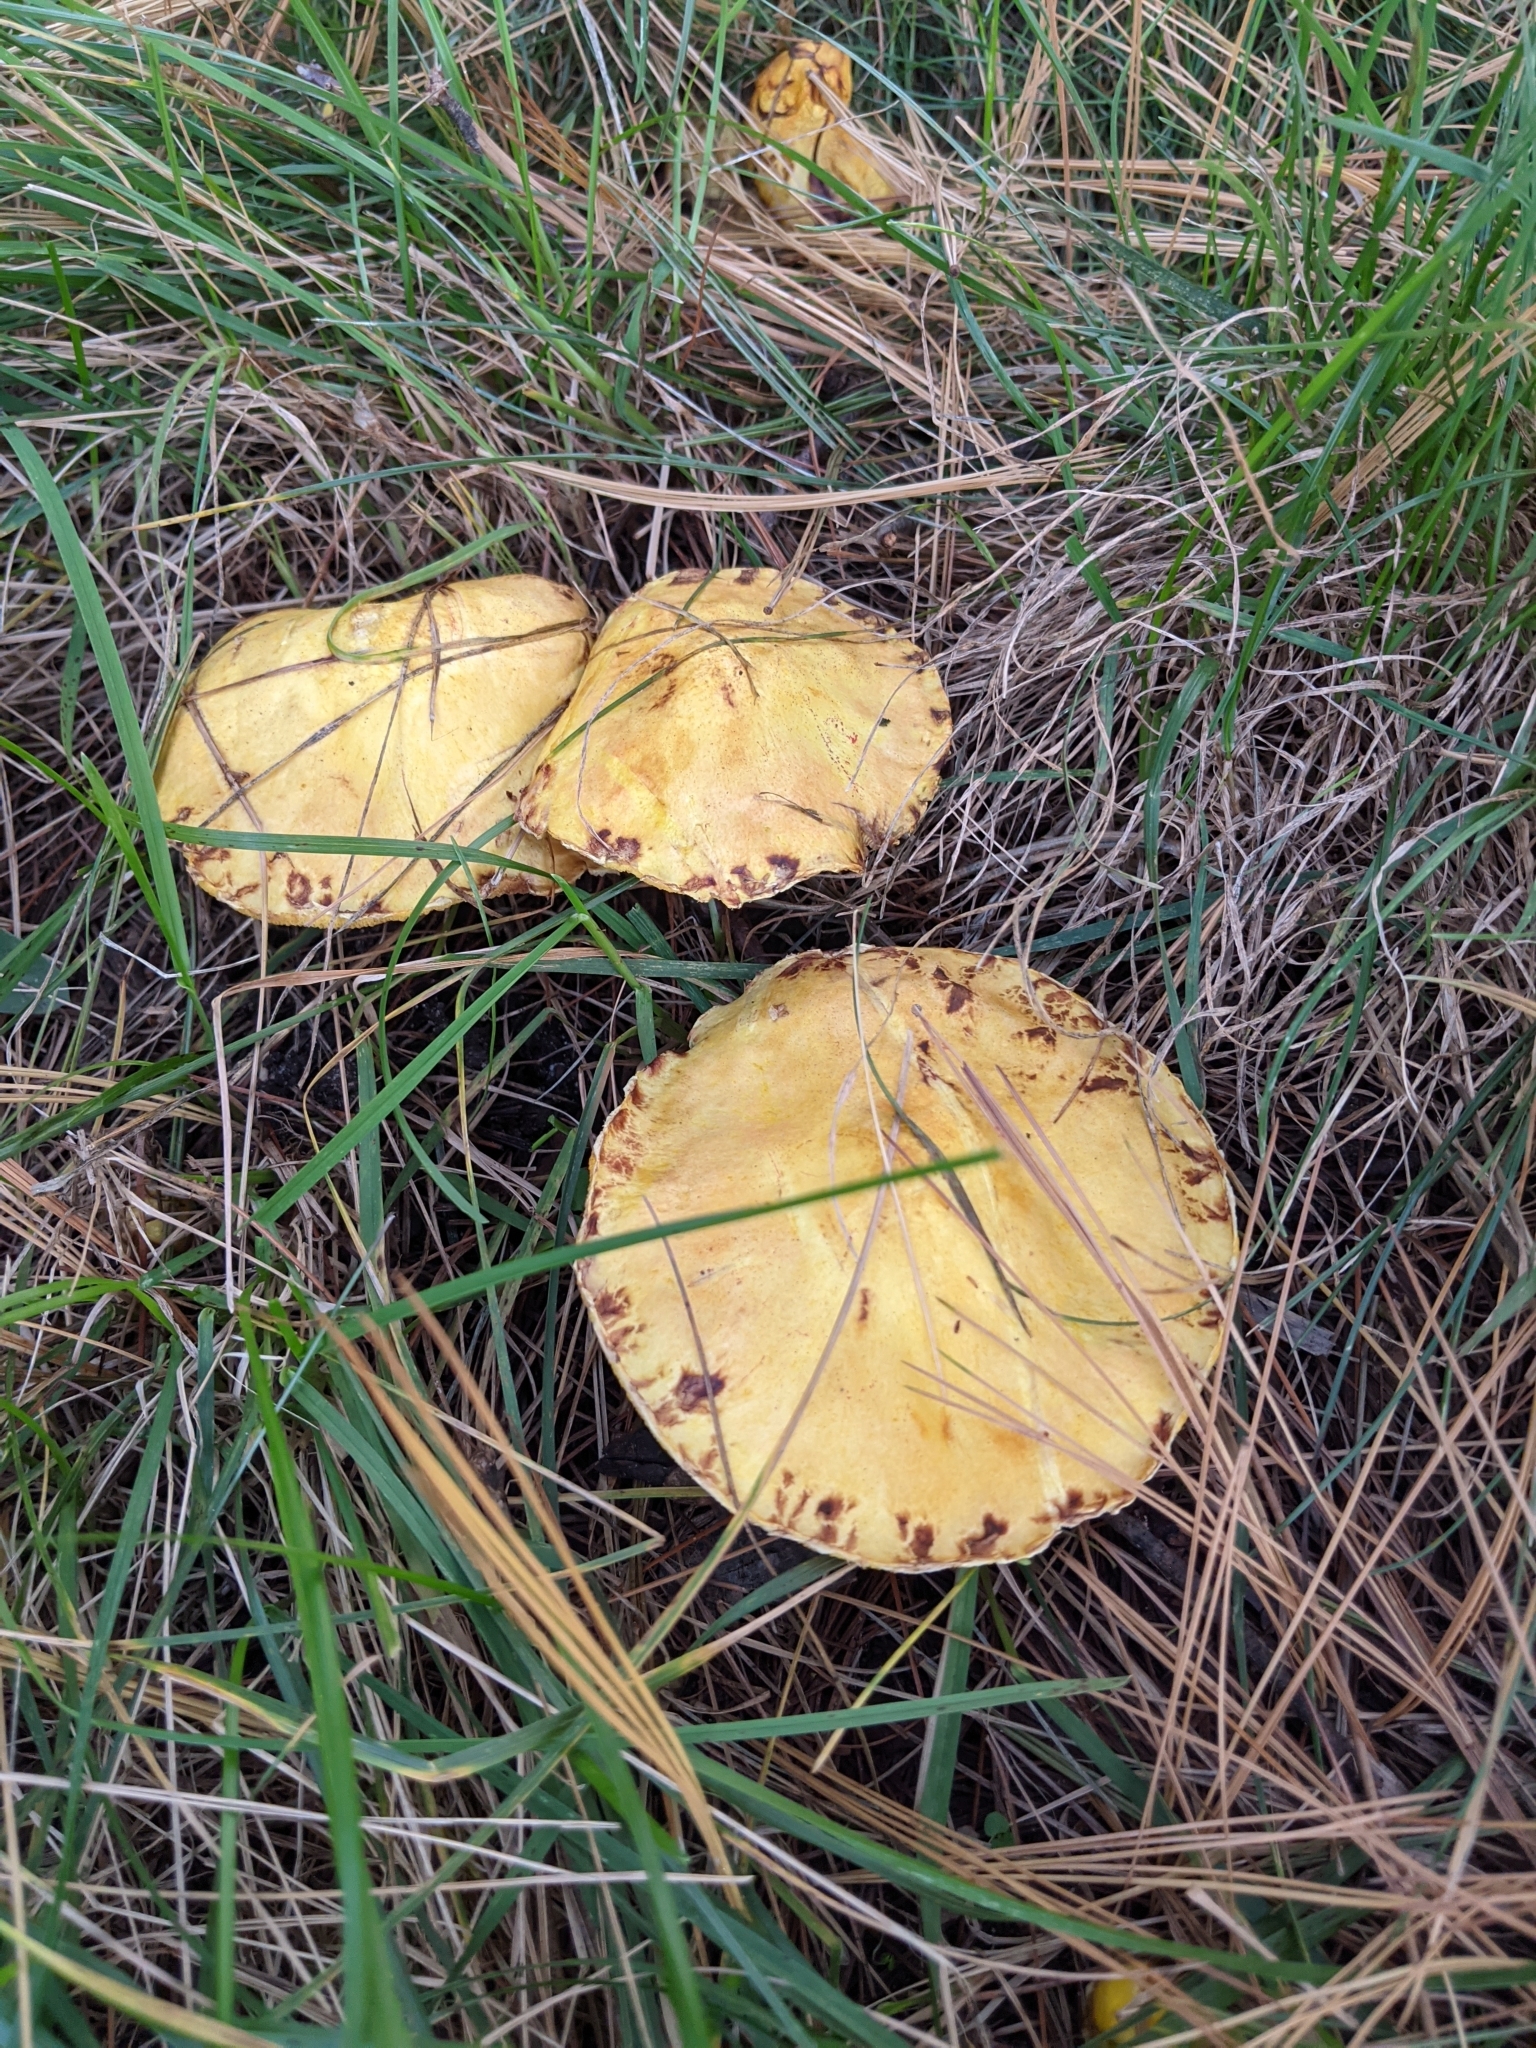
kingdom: Fungi
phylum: Basidiomycota
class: Agaricomycetes
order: Boletales
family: Suillaceae
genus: Suillus
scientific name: Suillus americanus
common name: Chicken fat mushroom
